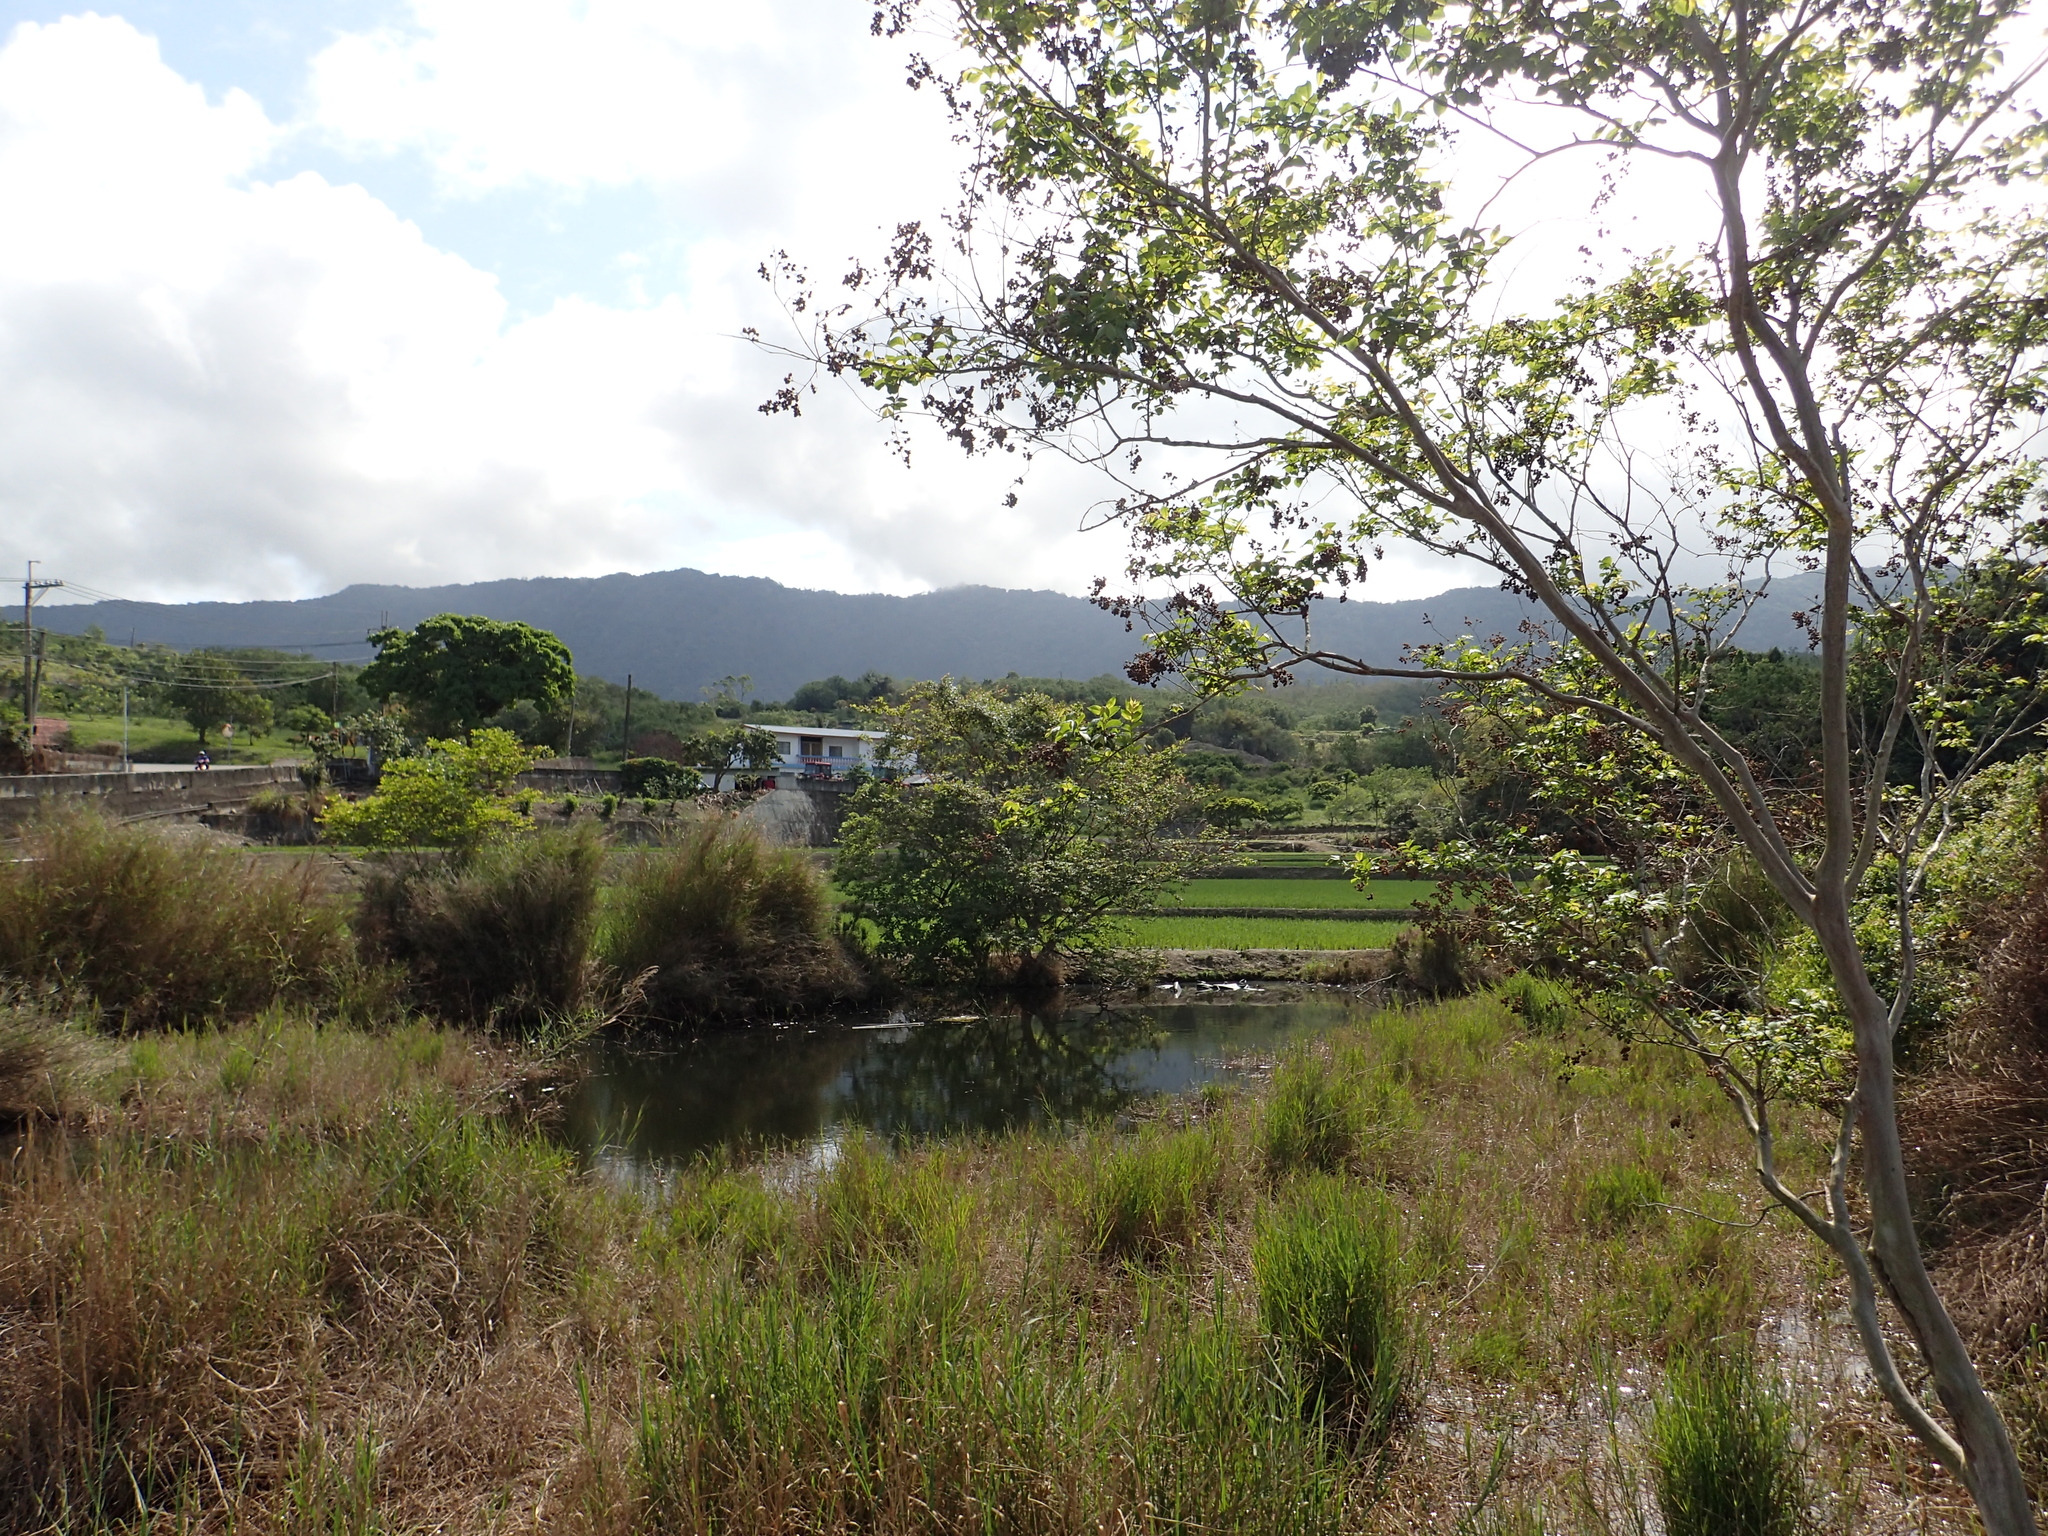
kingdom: Plantae
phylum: Tracheophyta
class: Magnoliopsida
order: Myrtales
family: Lythraceae
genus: Lagerstroemia
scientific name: Lagerstroemia subcostata
